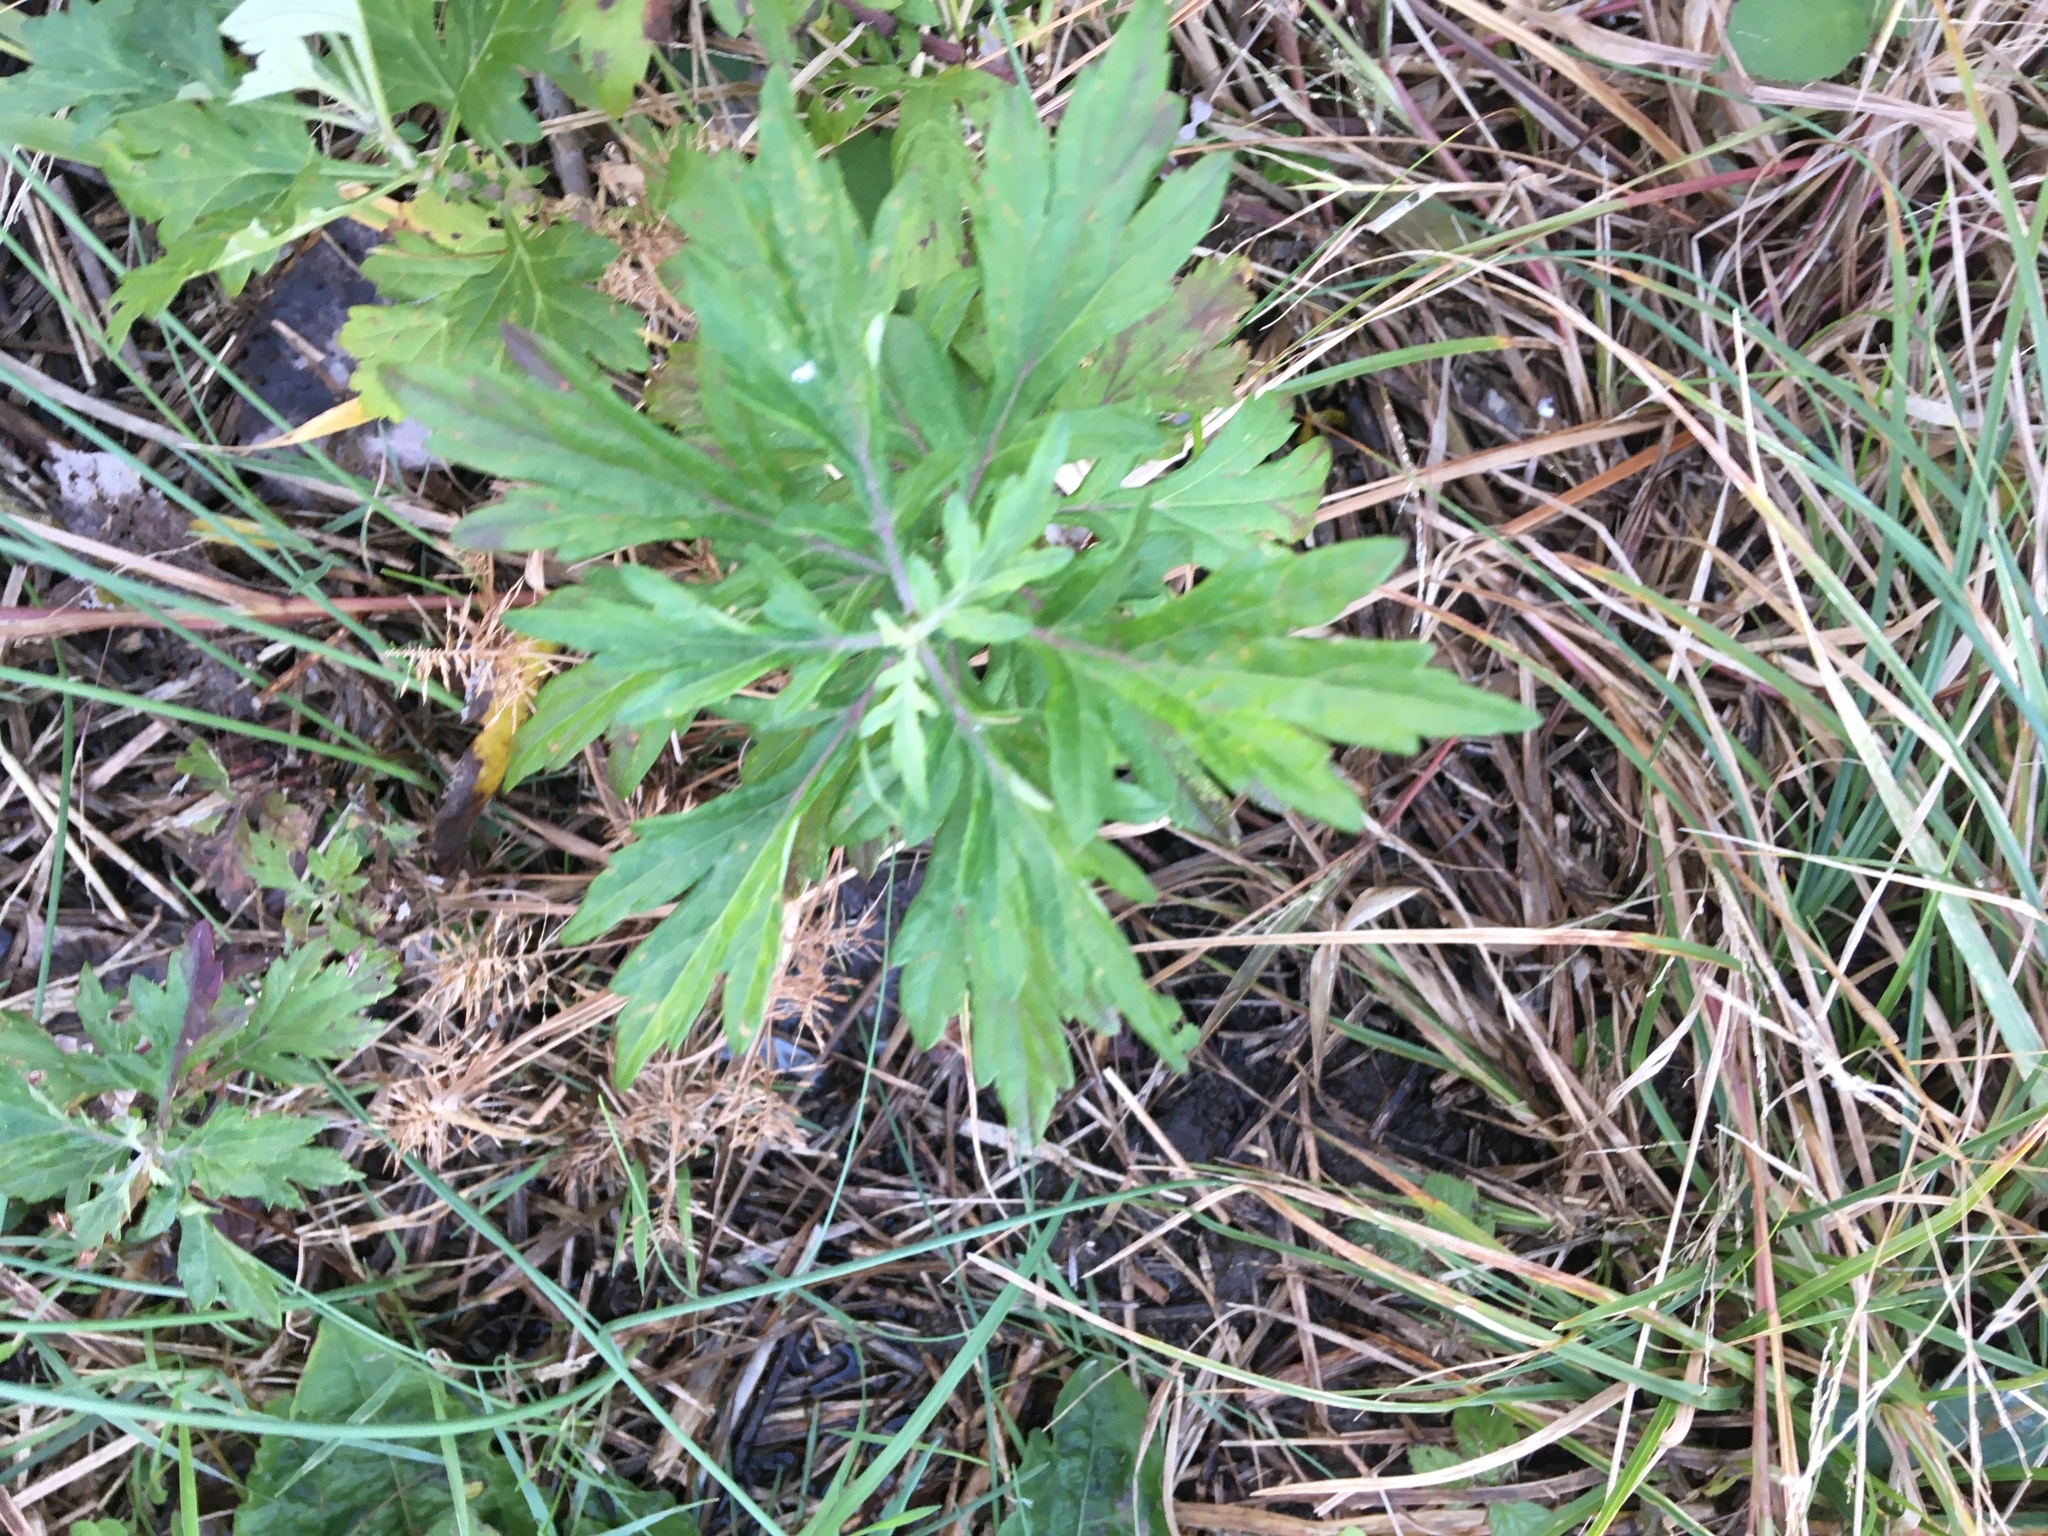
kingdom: Plantae
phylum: Tracheophyta
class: Magnoliopsida
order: Asterales
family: Asteraceae
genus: Artemisia
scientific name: Artemisia vulgaris
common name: Mugwort
